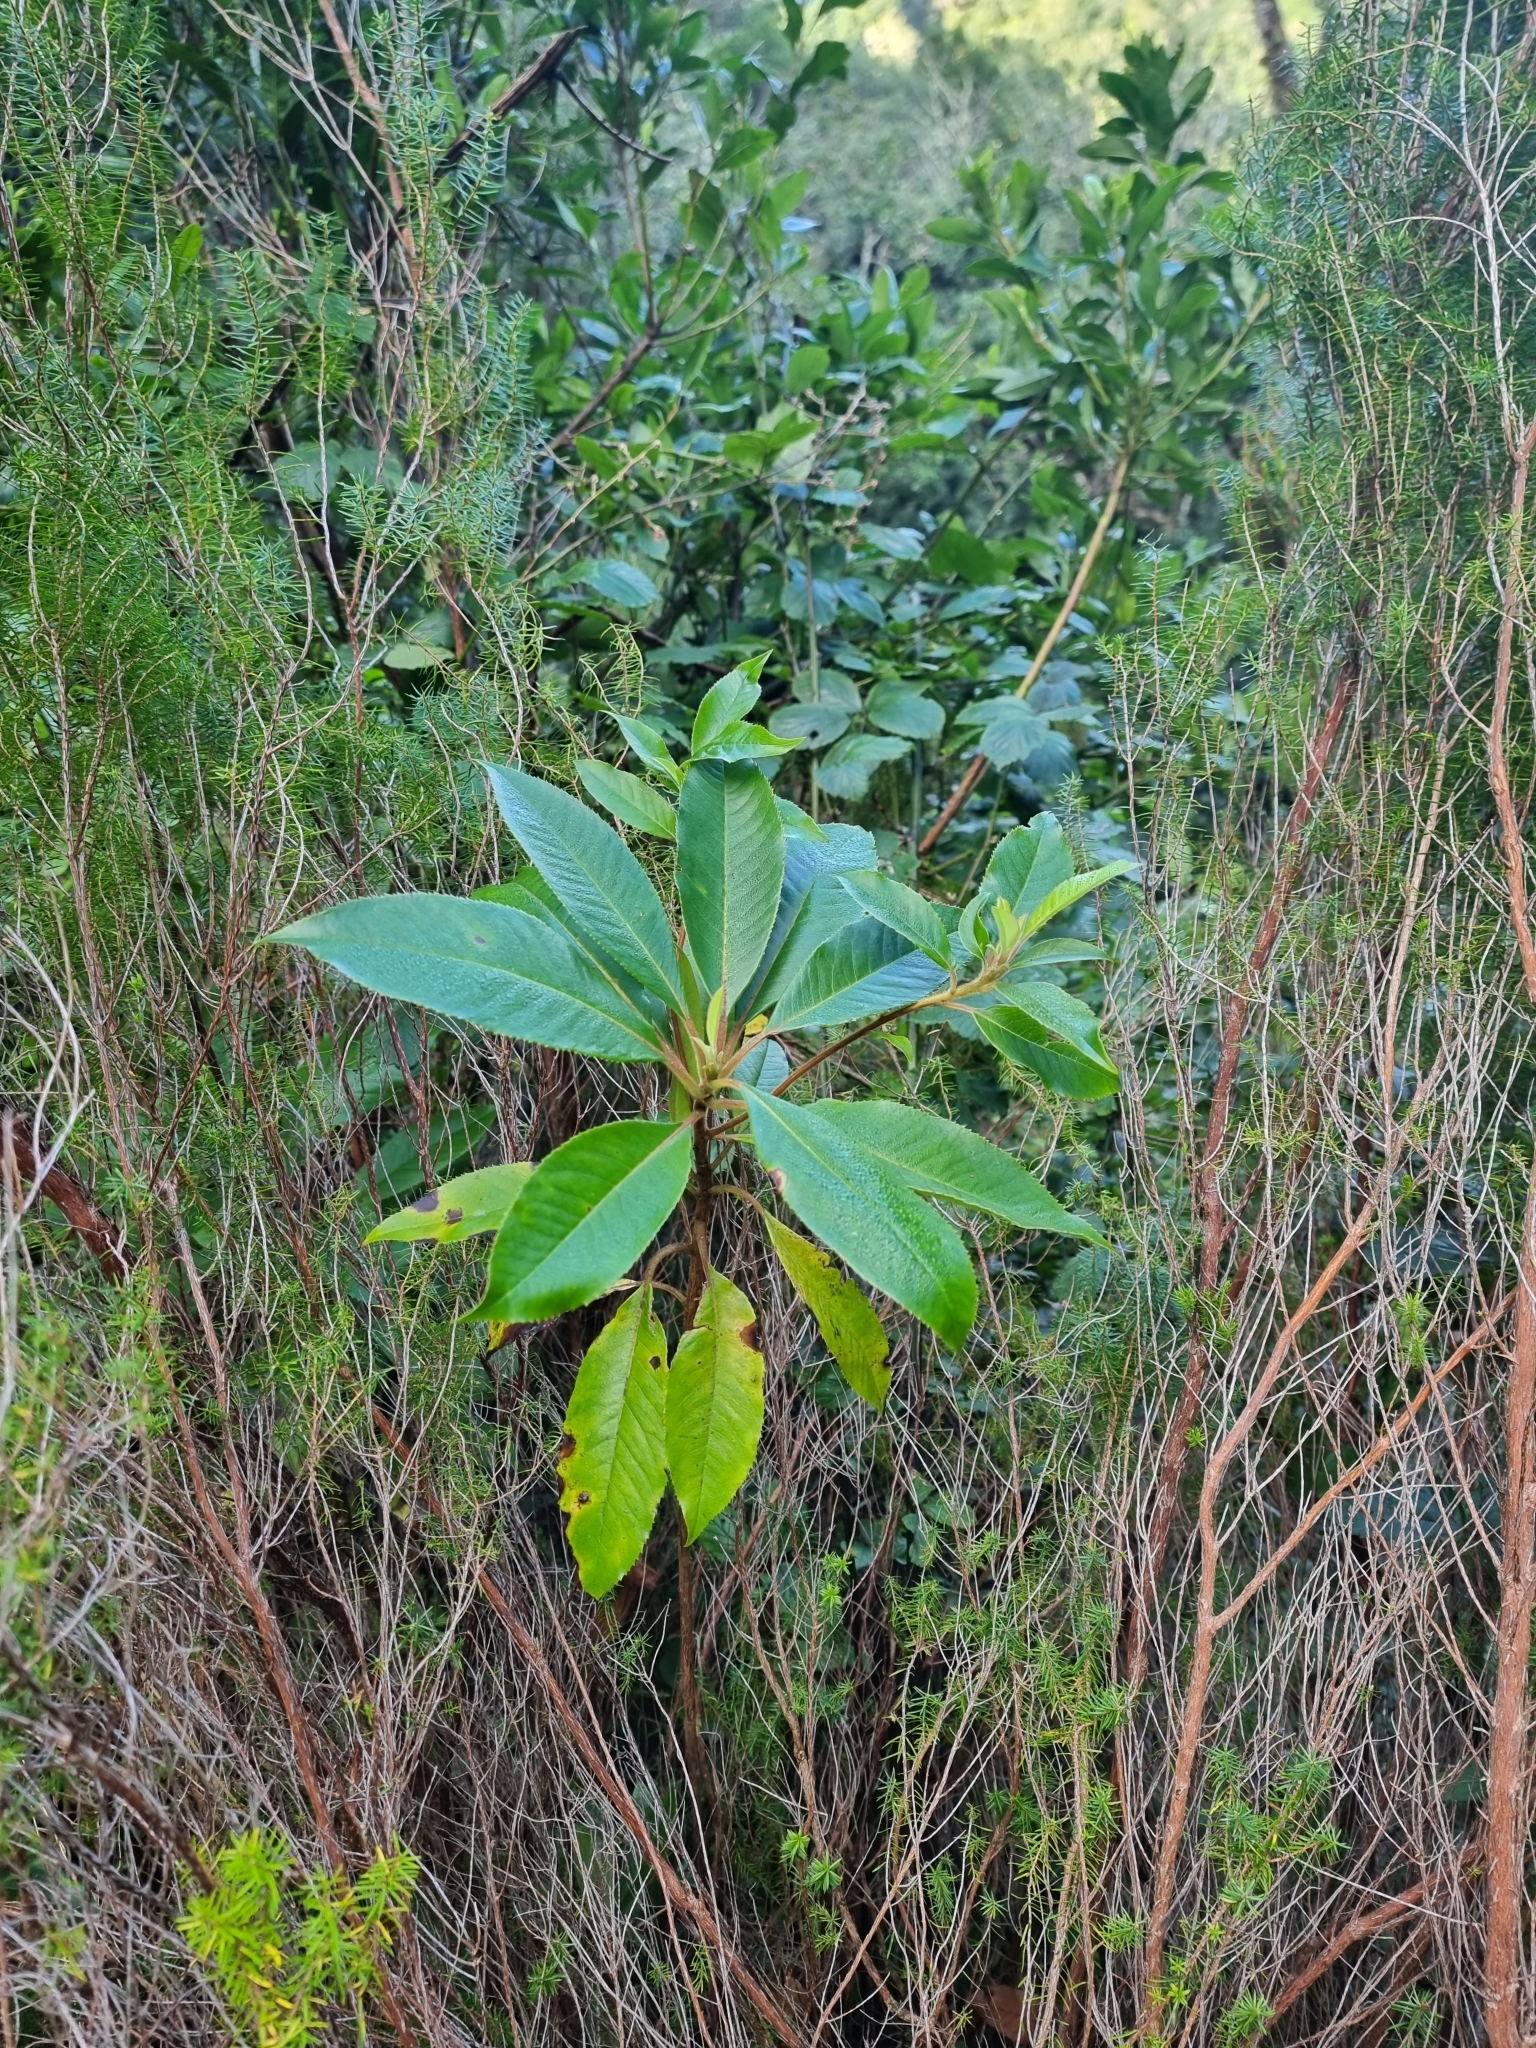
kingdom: Plantae
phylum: Tracheophyta
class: Magnoliopsida
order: Ericales
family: Clethraceae
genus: Clethra
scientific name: Clethra arborea
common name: Lily-of-the-valley-tree
